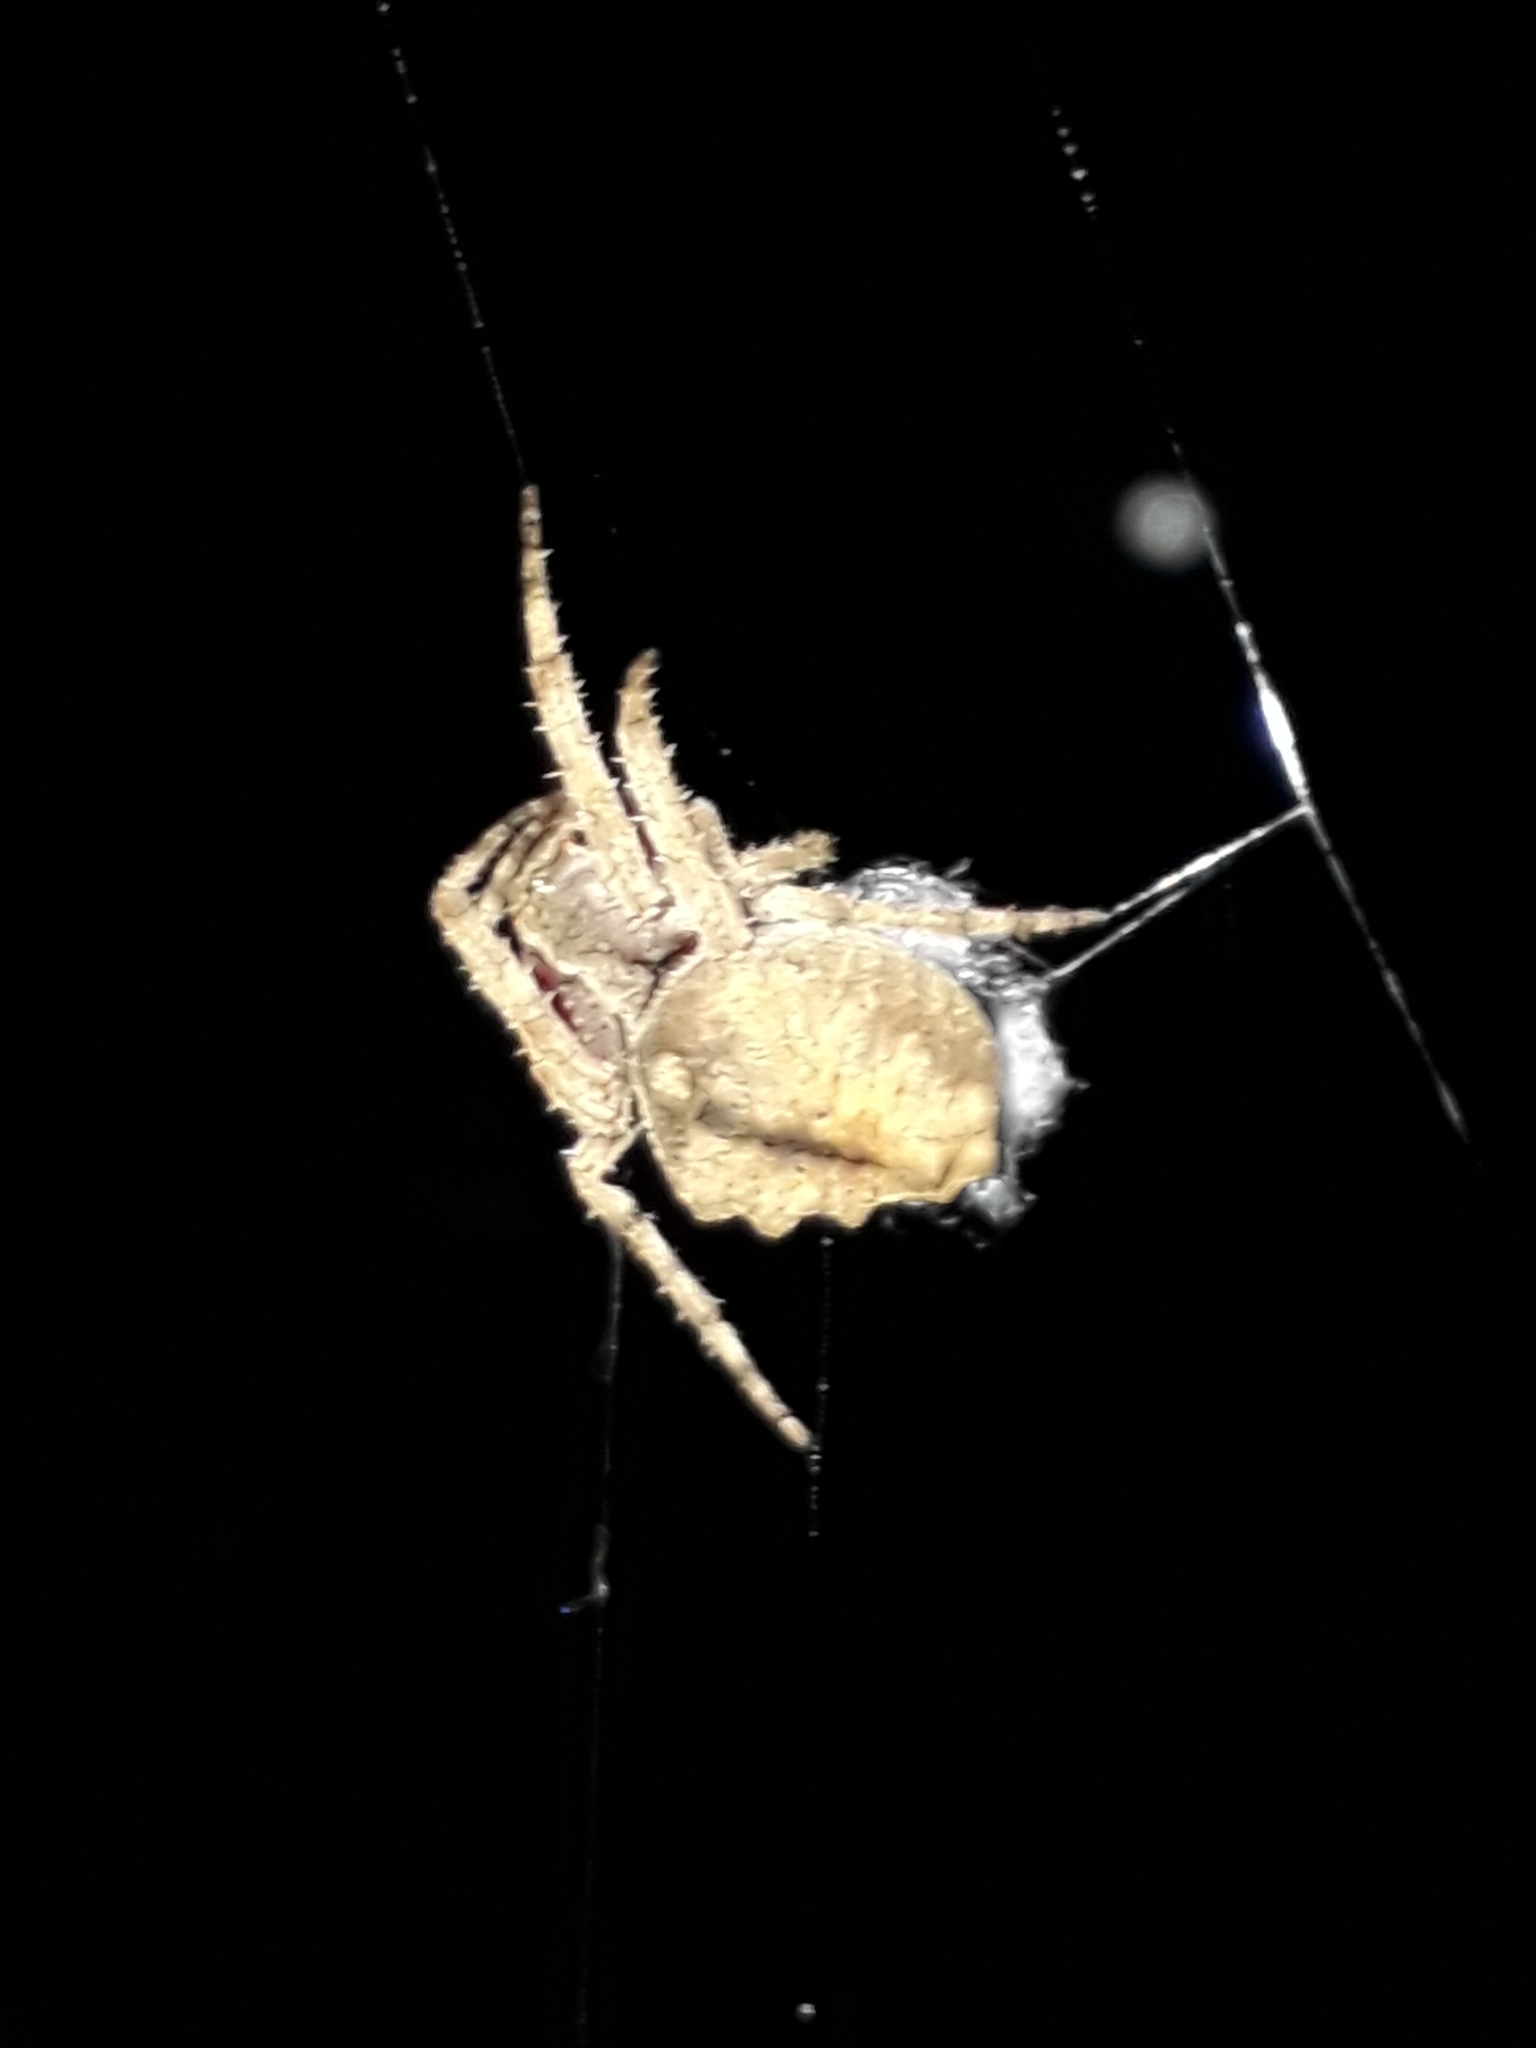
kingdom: Animalia
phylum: Arthropoda
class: Arachnida
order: Araneae
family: Araneidae
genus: Parawixia
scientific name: Parawixia audax
